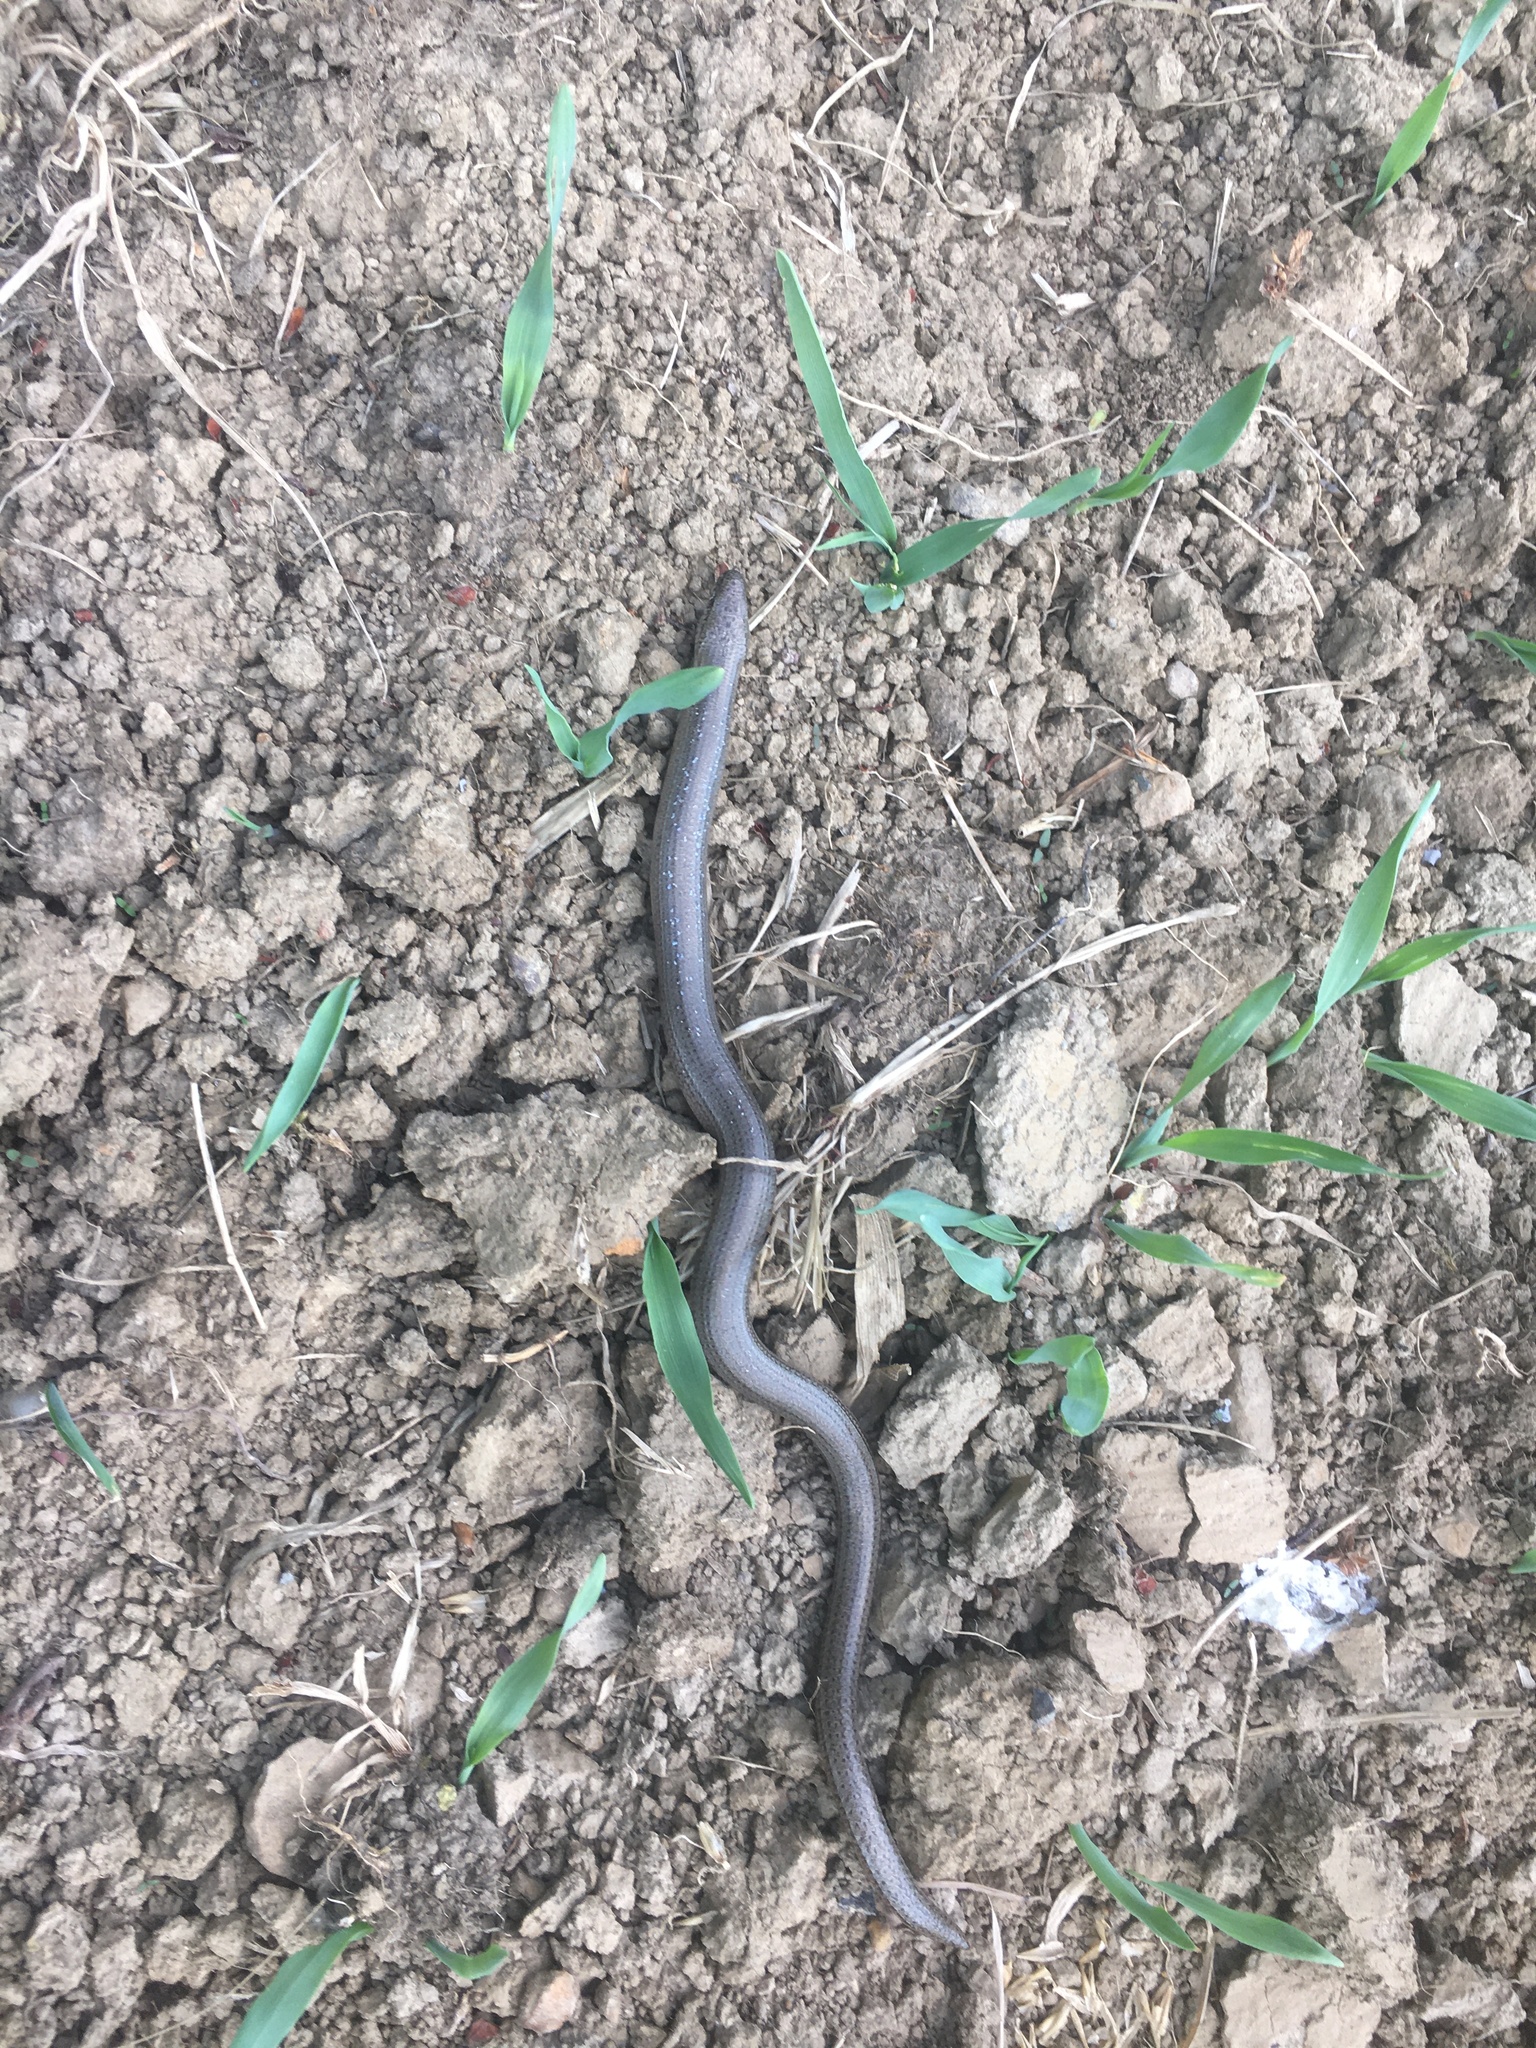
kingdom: Animalia
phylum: Chordata
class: Squamata
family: Anguidae
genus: Anguis
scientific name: Anguis fragilis
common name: Slow worm
